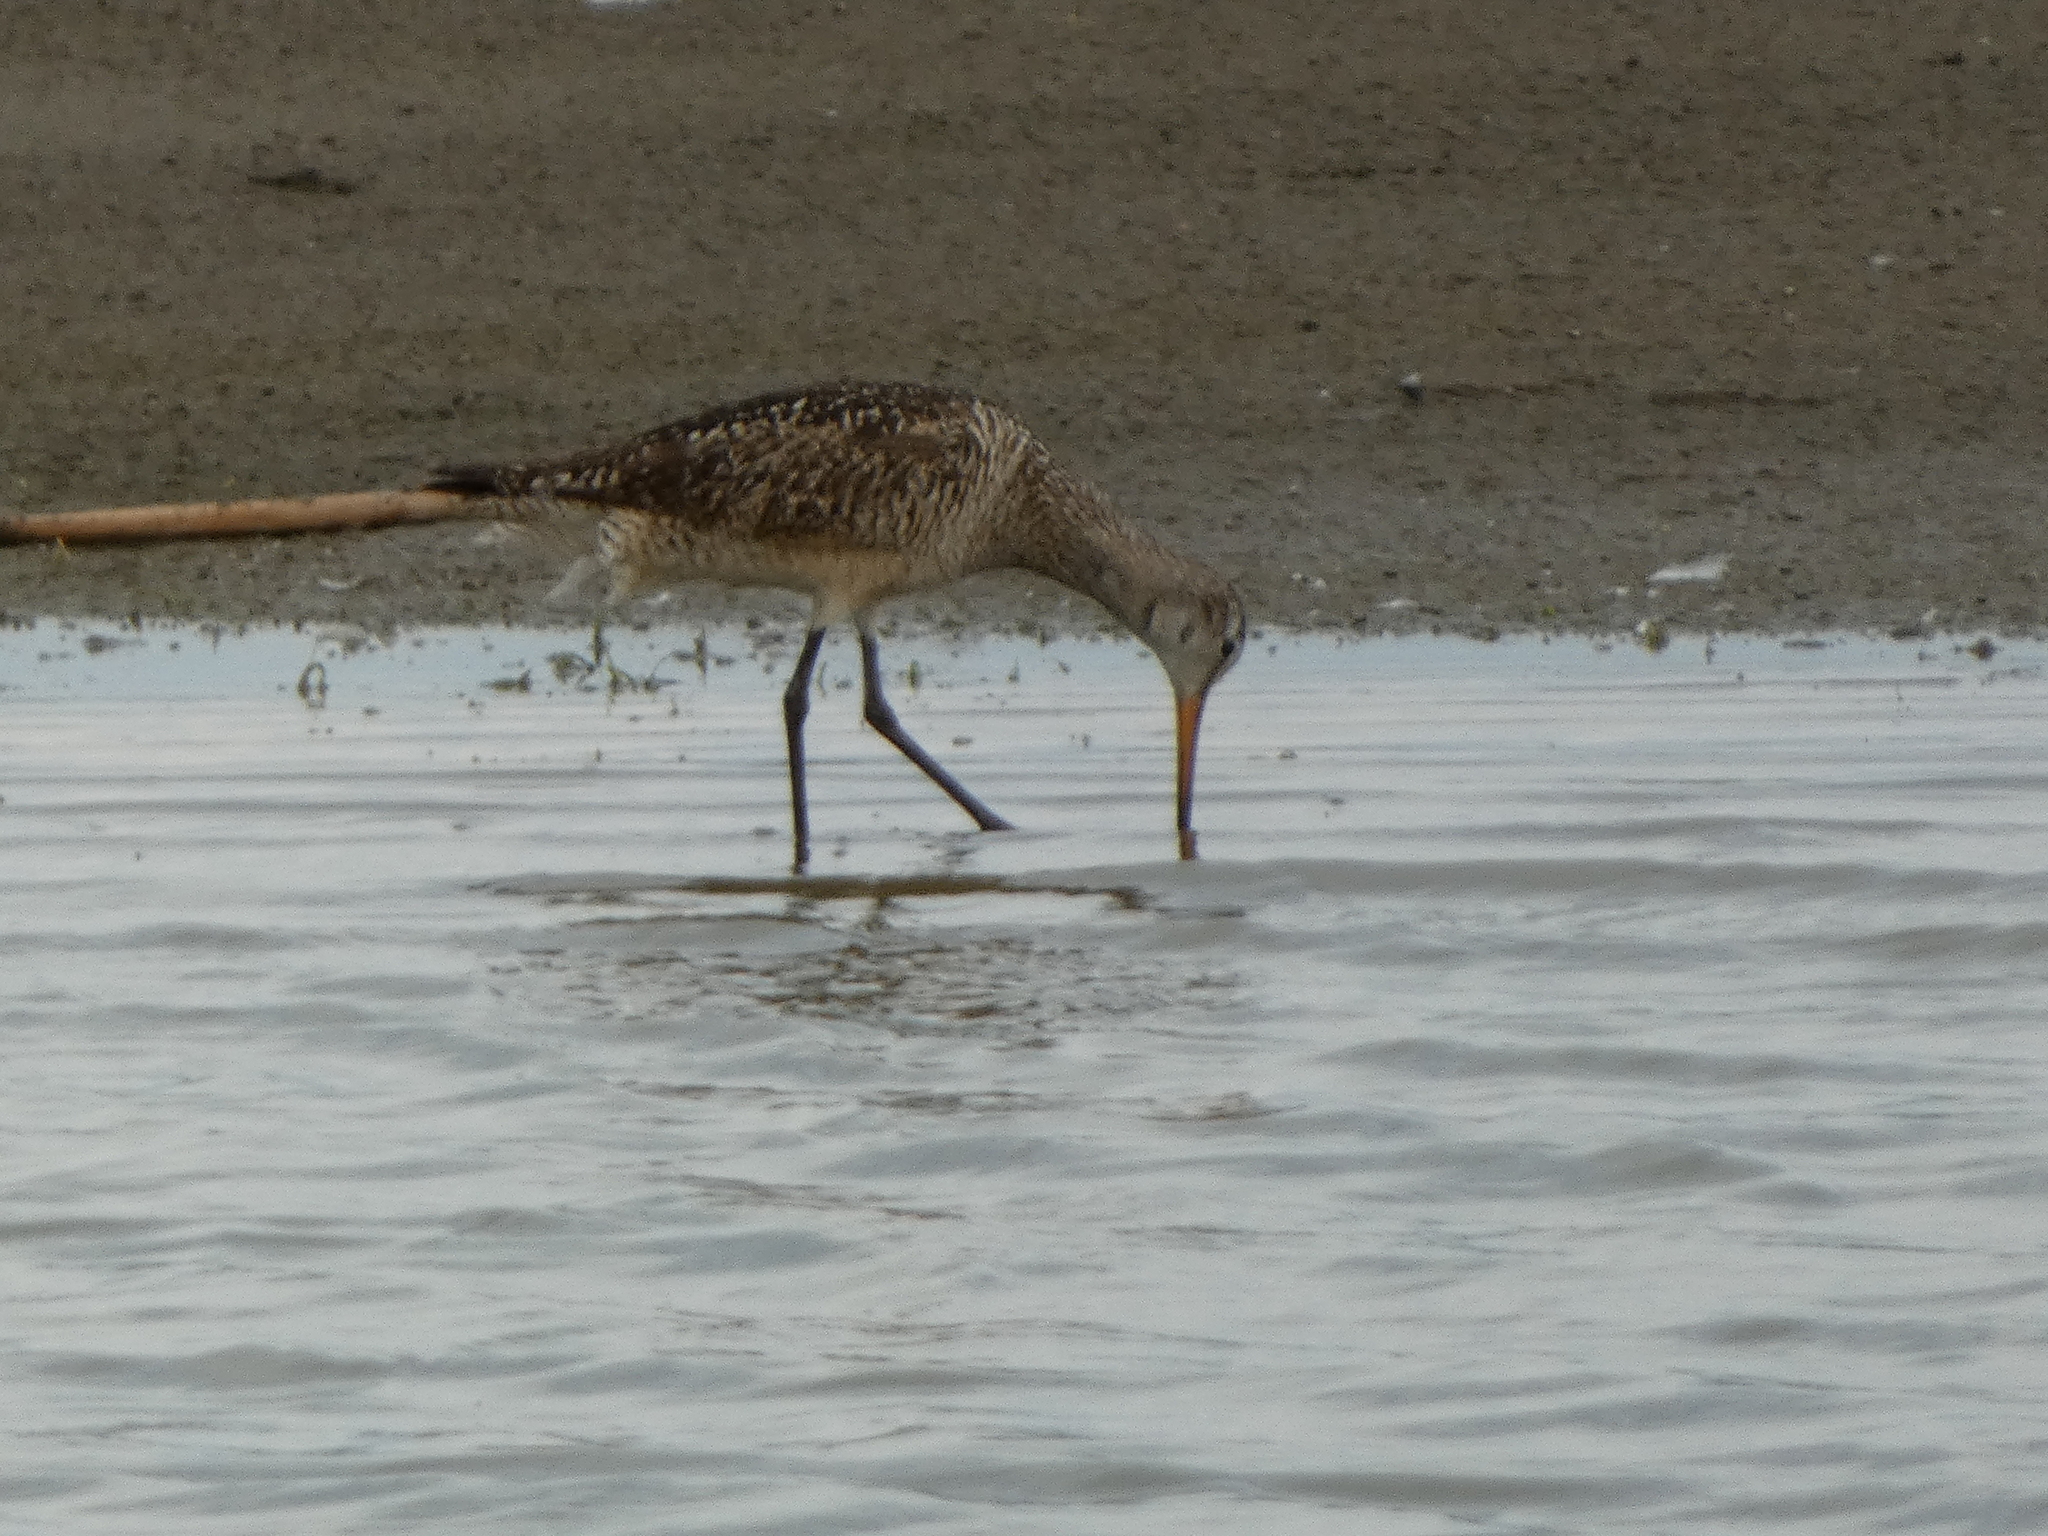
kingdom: Animalia
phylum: Chordata
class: Aves
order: Charadriiformes
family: Scolopacidae
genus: Limosa
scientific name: Limosa fedoa
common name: Marbled godwit
